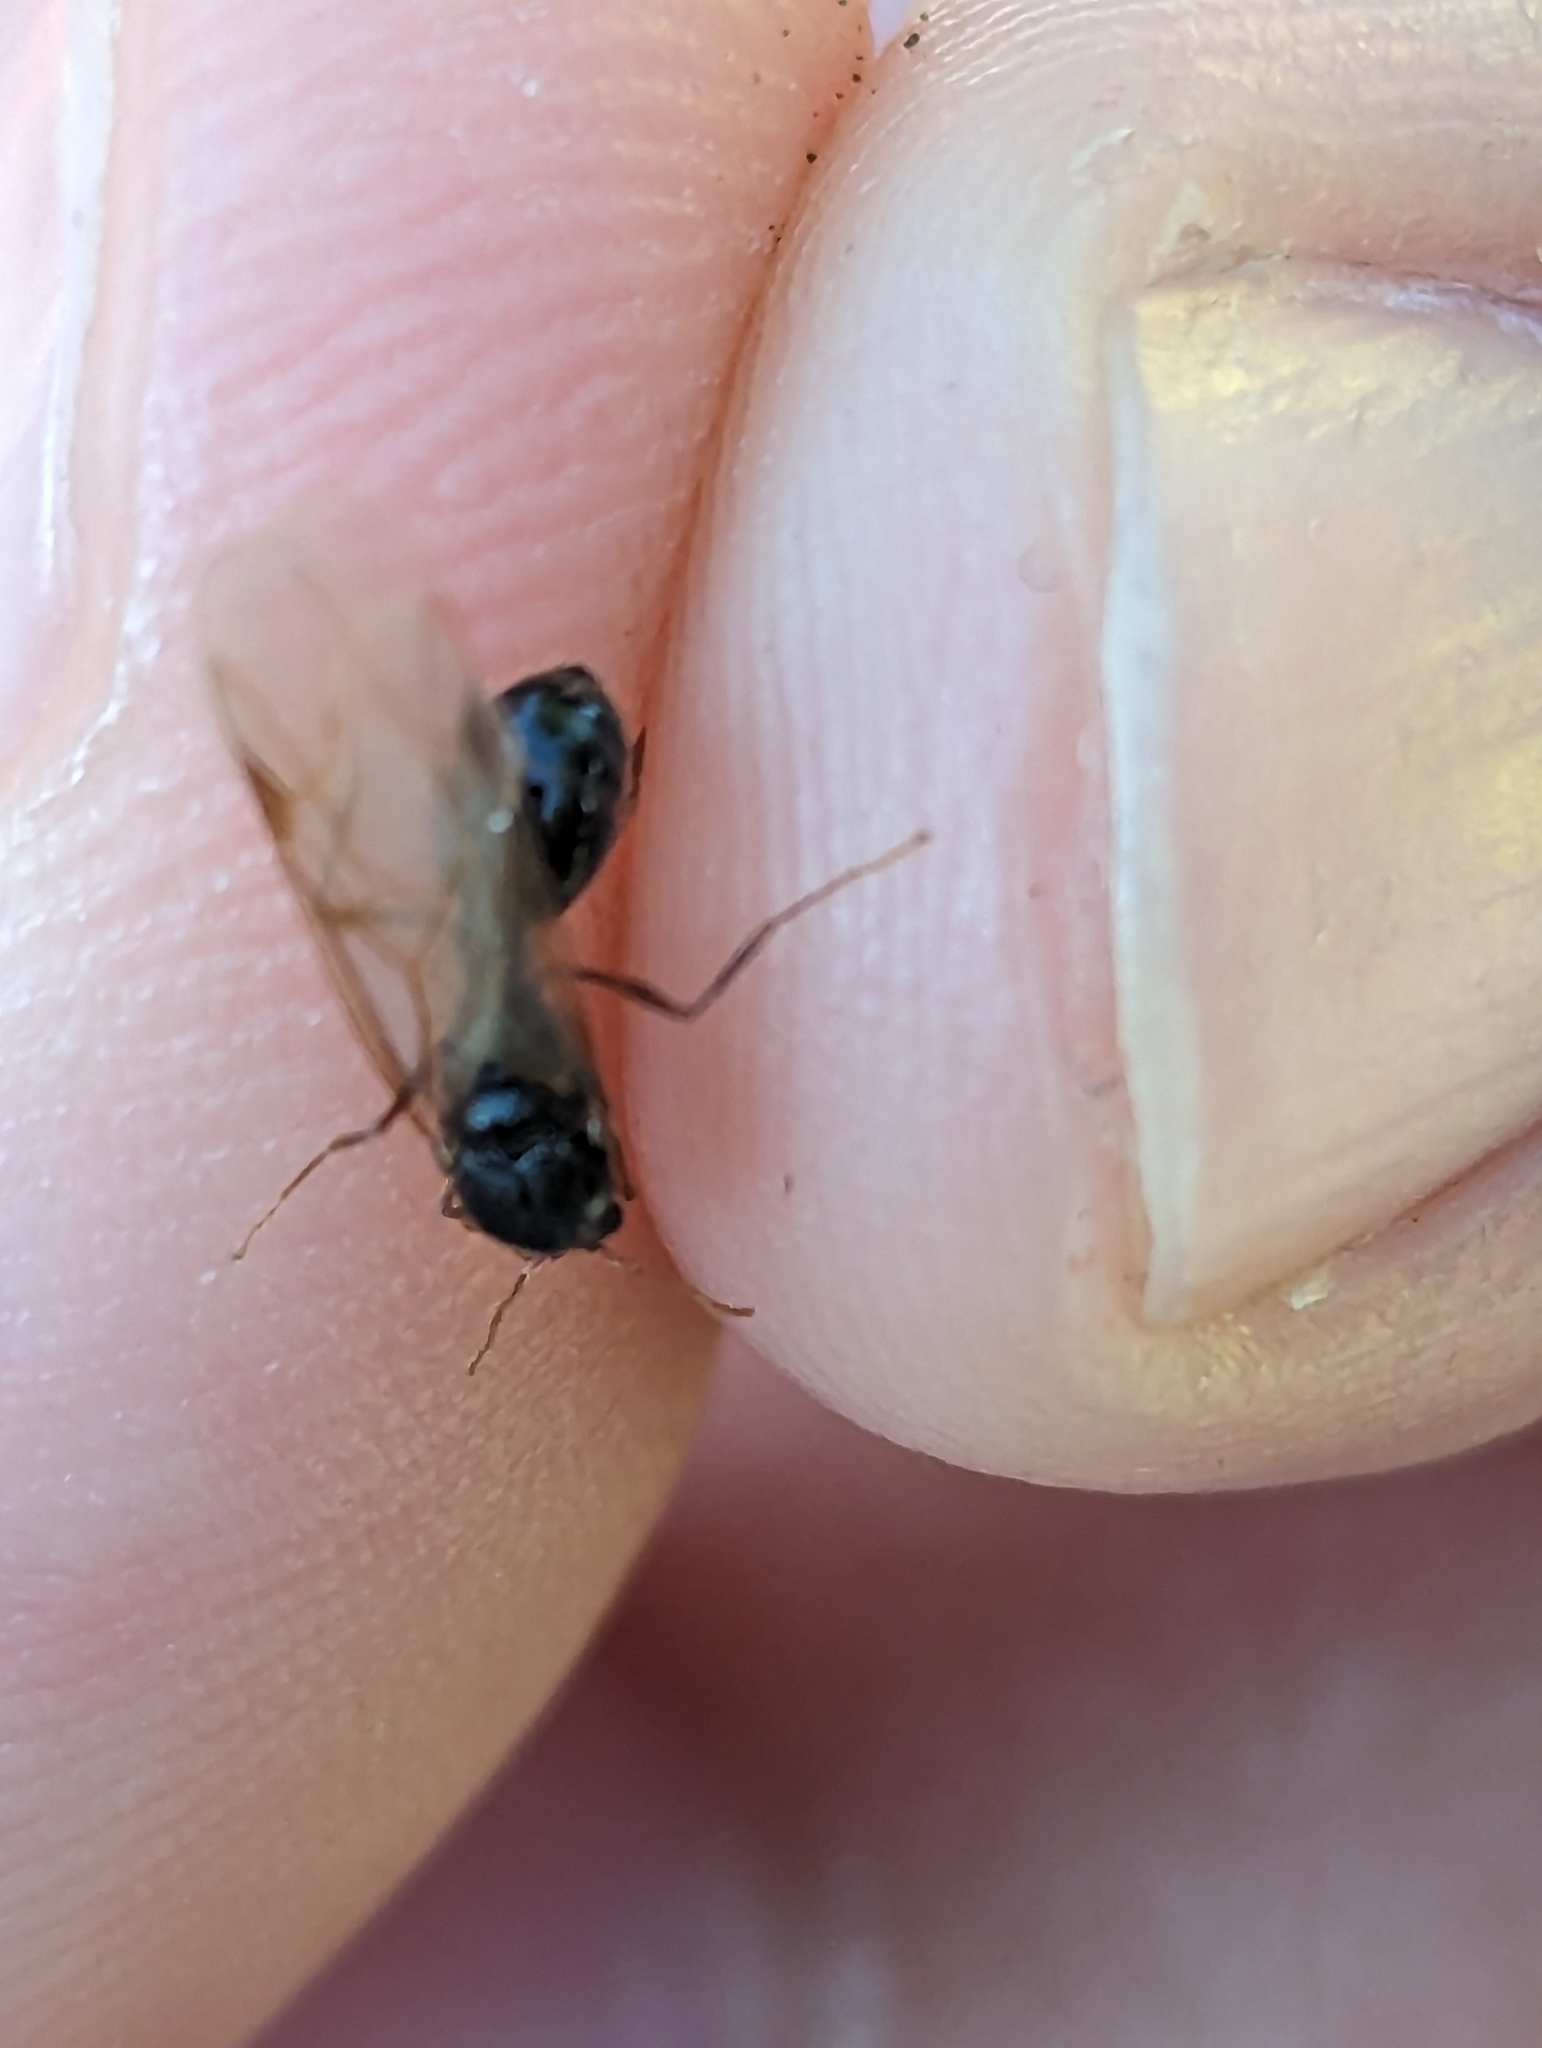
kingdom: Animalia
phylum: Arthropoda
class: Insecta
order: Hymenoptera
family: Formicidae
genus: Tetramorium
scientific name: Tetramorium immigrans
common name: Pavement ant
